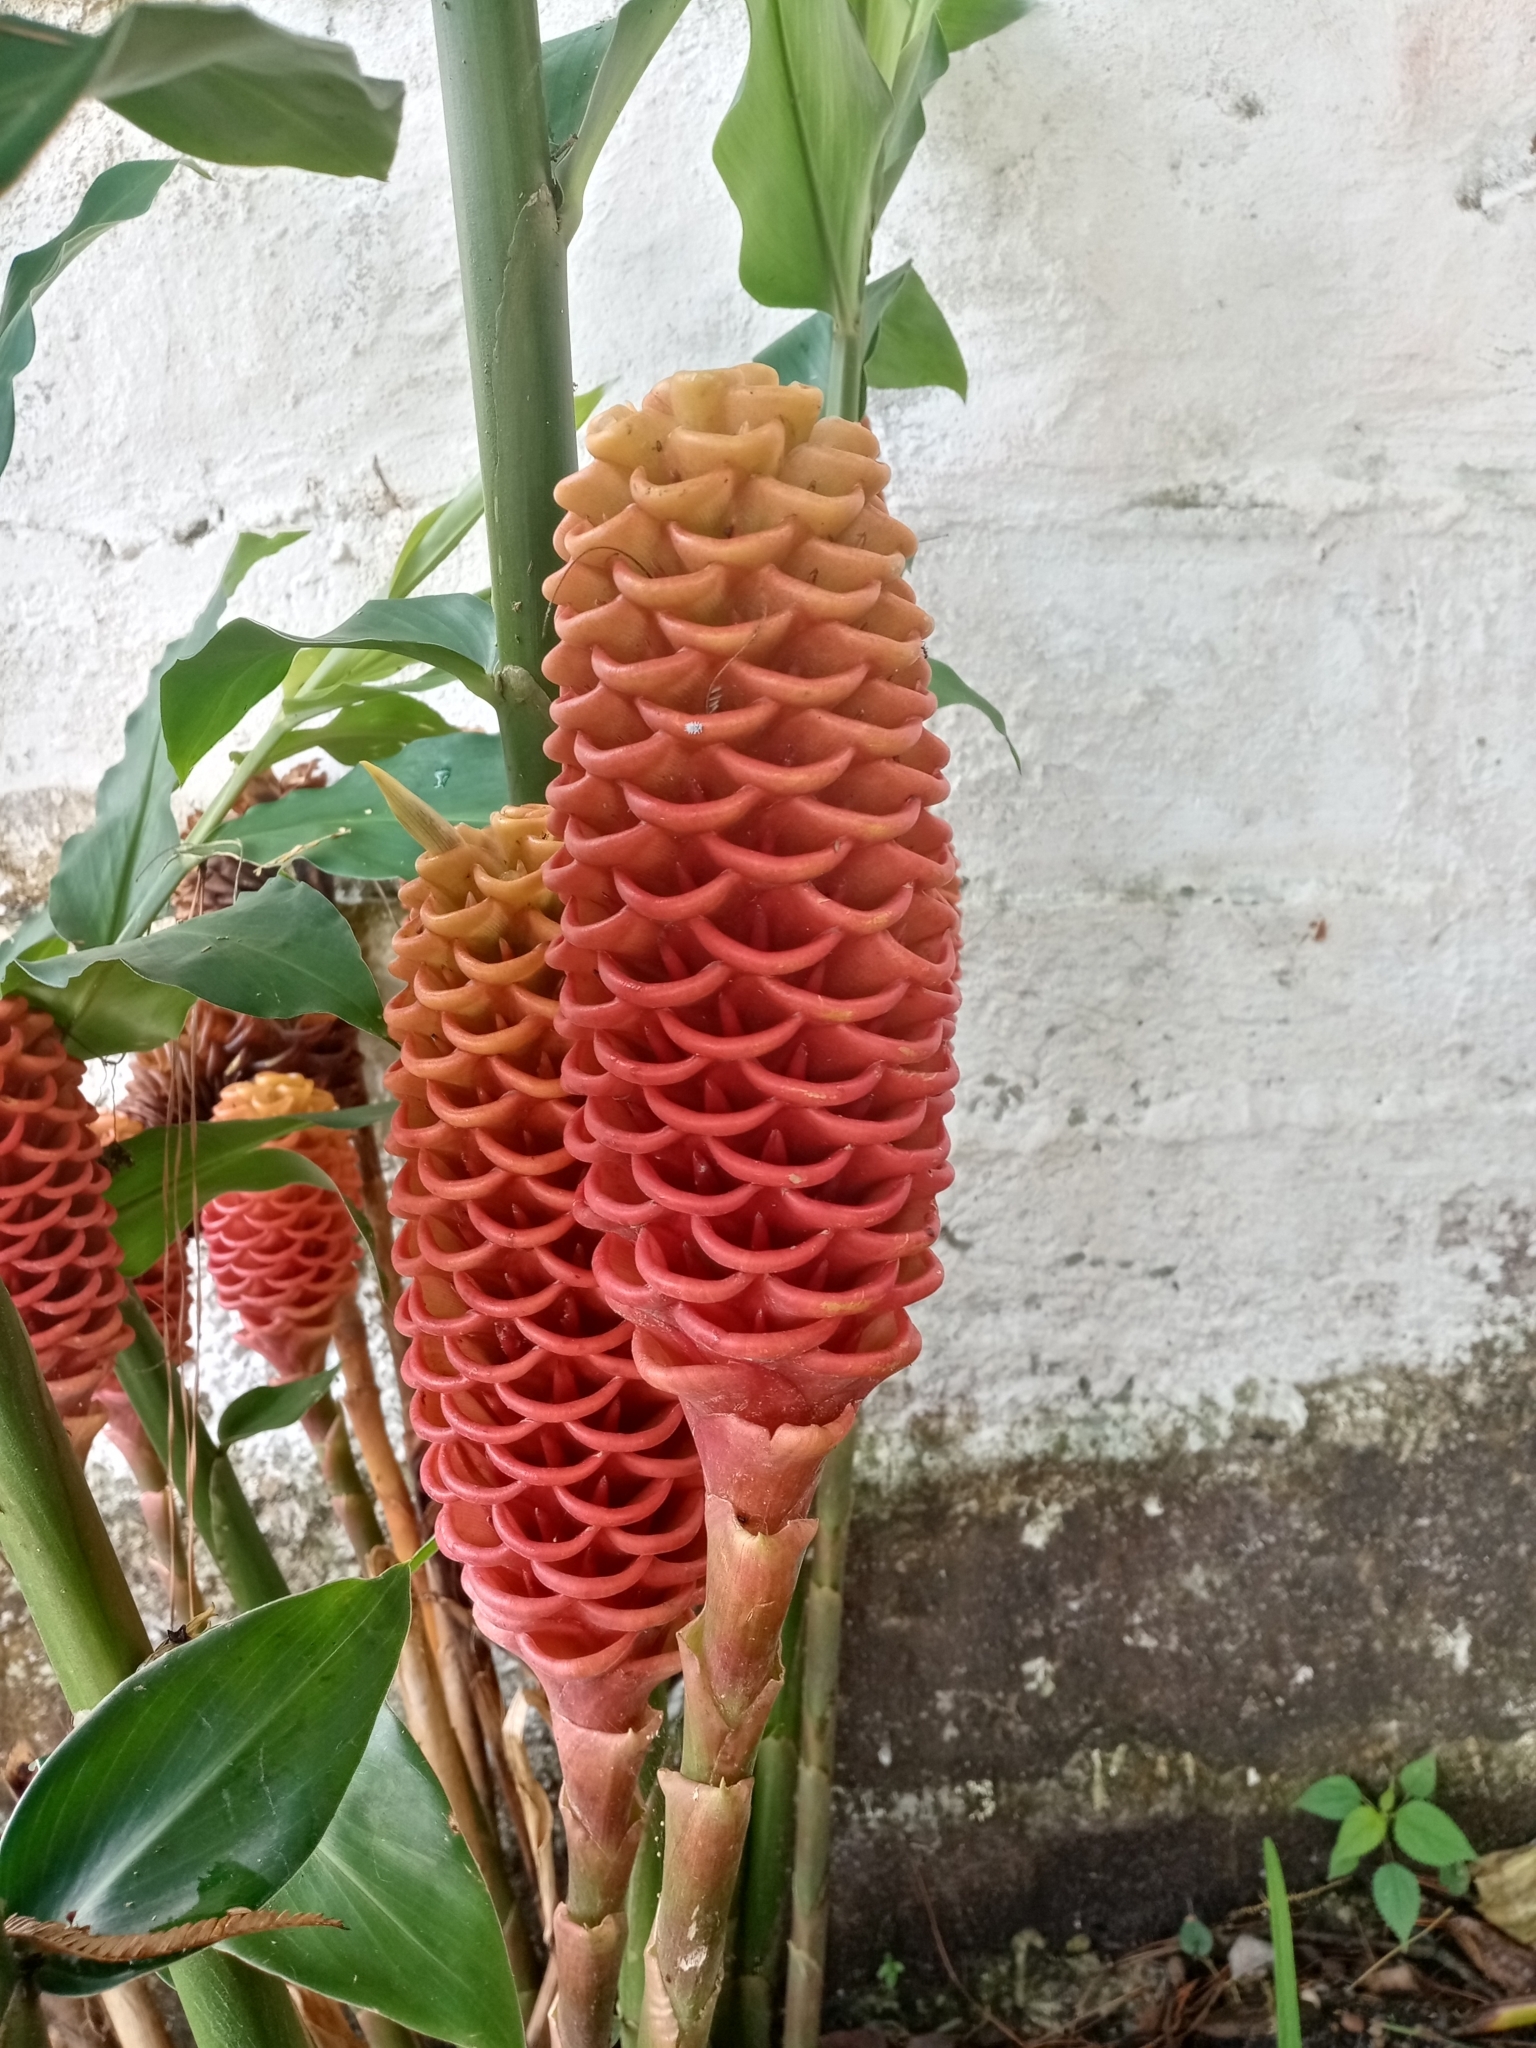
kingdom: Plantae
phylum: Tracheophyta
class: Liliopsida
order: Zingiberales
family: Zingiberaceae
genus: Zingiber
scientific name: Zingiber spectabile
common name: Beehive ginger
